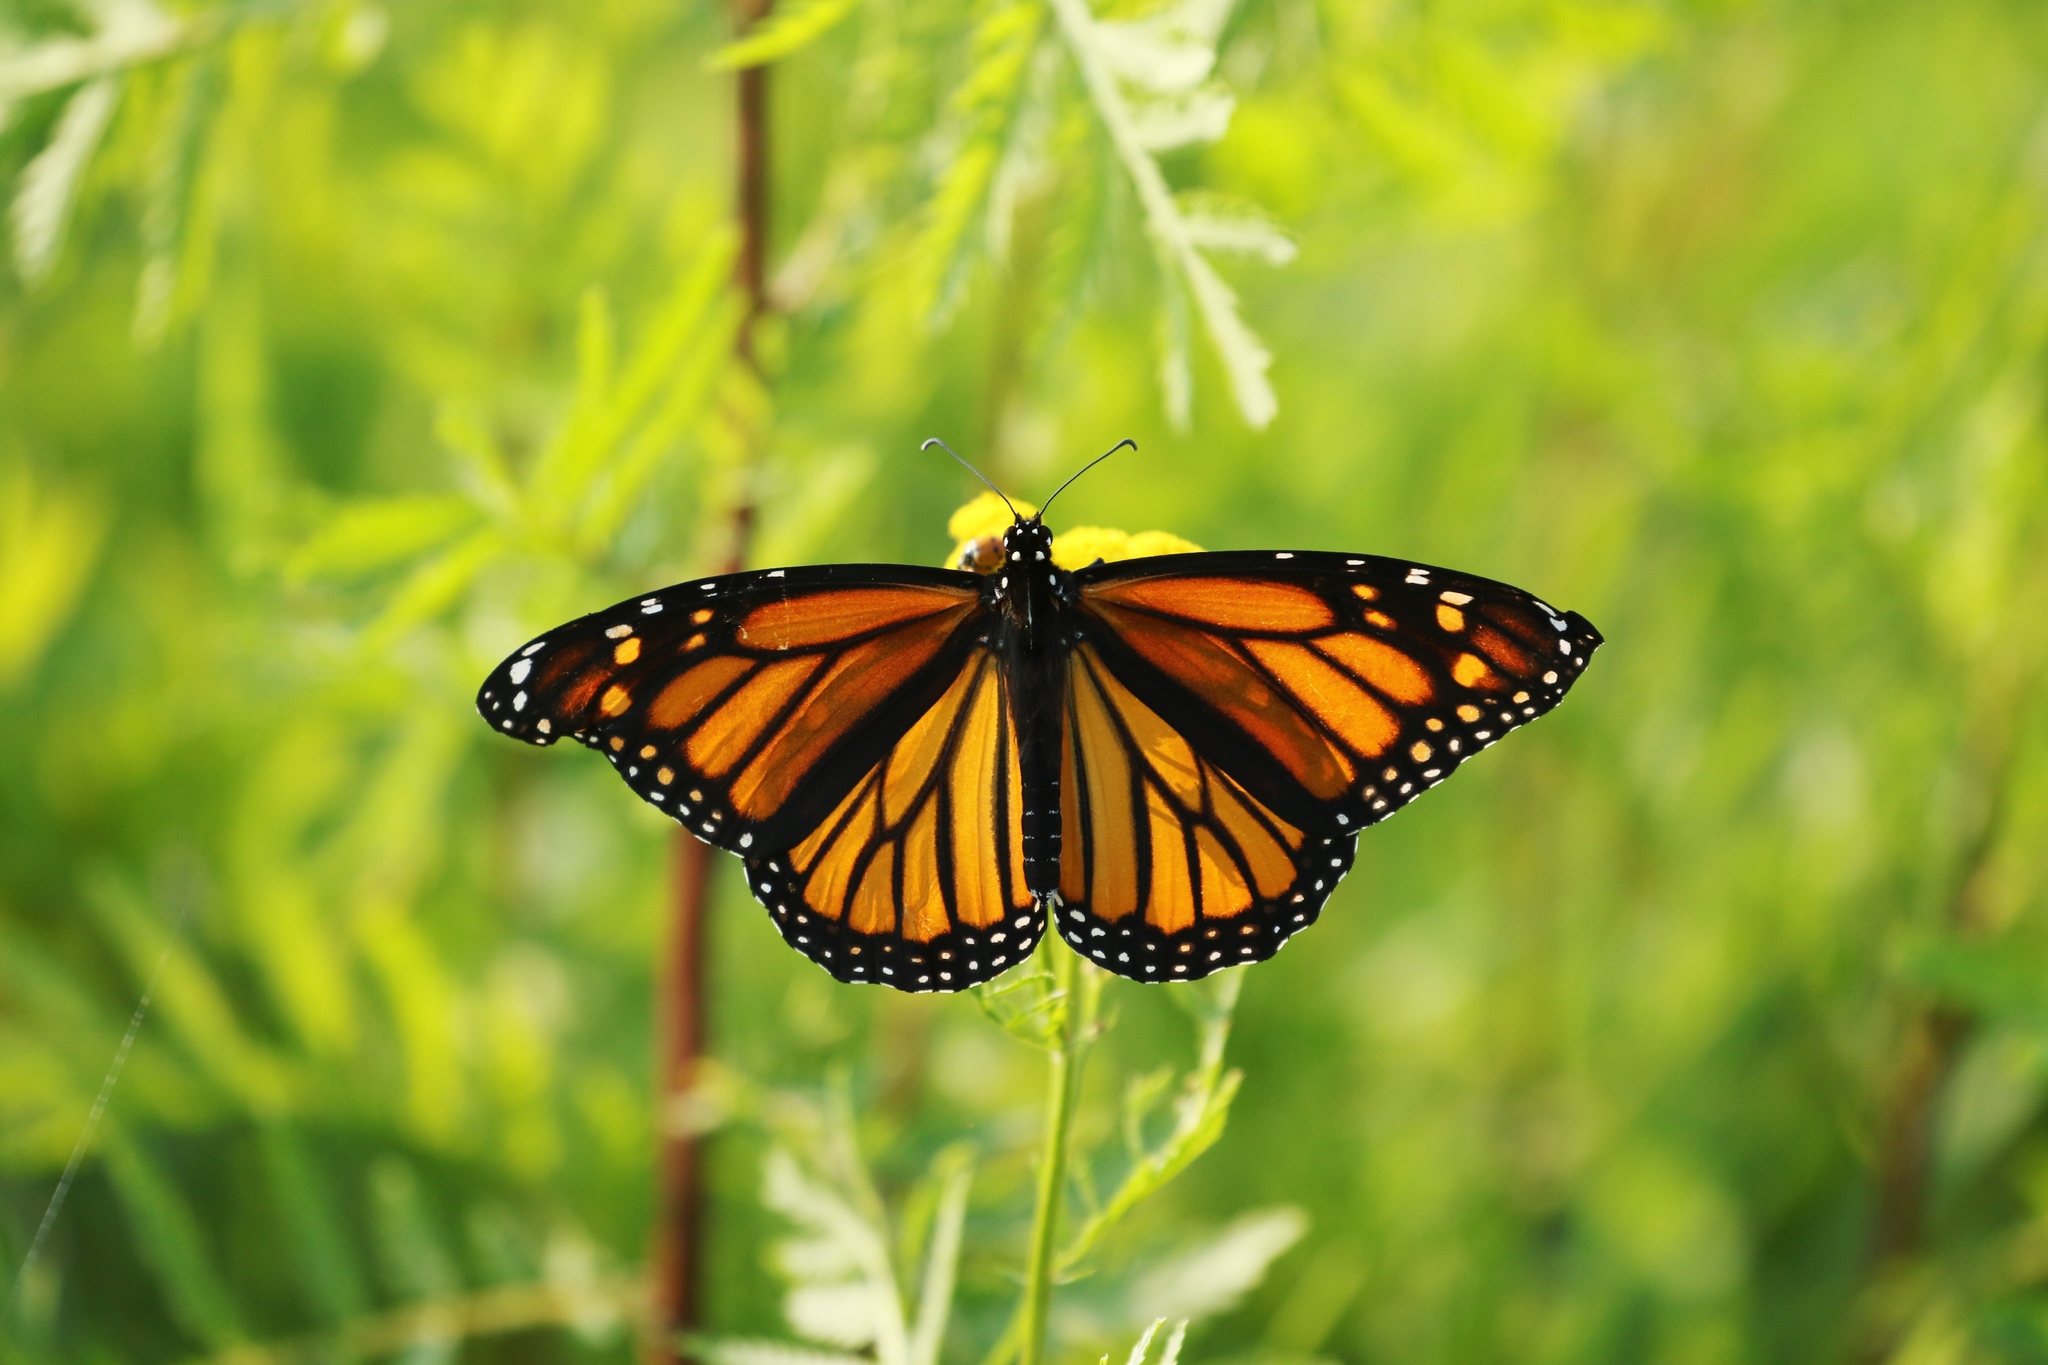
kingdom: Animalia
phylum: Arthropoda
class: Insecta
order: Lepidoptera
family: Nymphalidae
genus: Danaus
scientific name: Danaus plexippus
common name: Monarch
